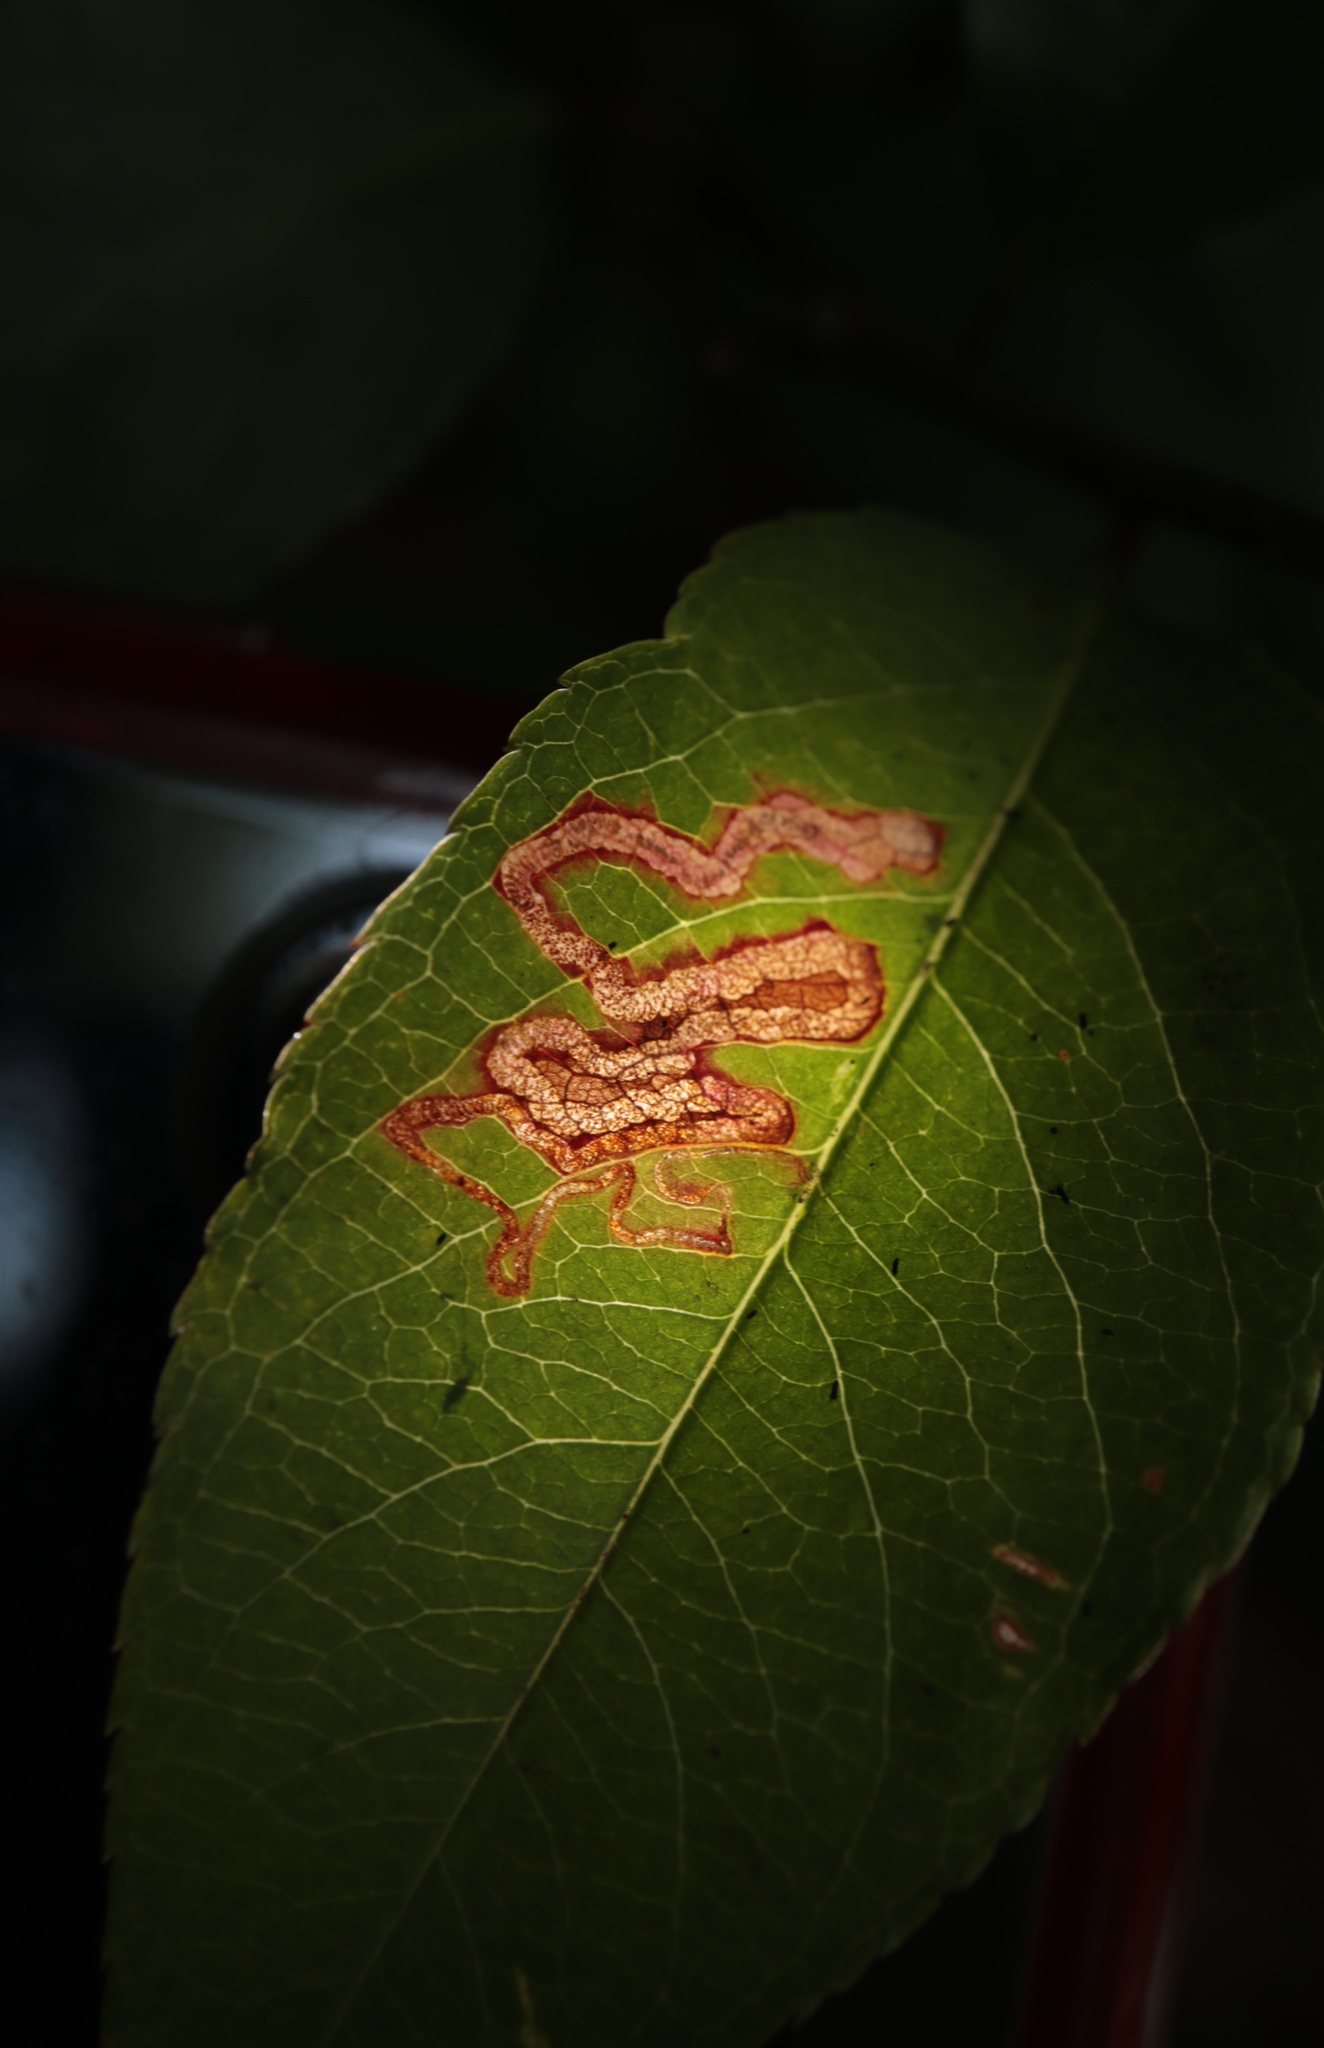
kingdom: Animalia
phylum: Arthropoda
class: Insecta
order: Lepidoptera
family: Nepticulidae
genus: Stigmella
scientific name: Stigmella prunifoliella
